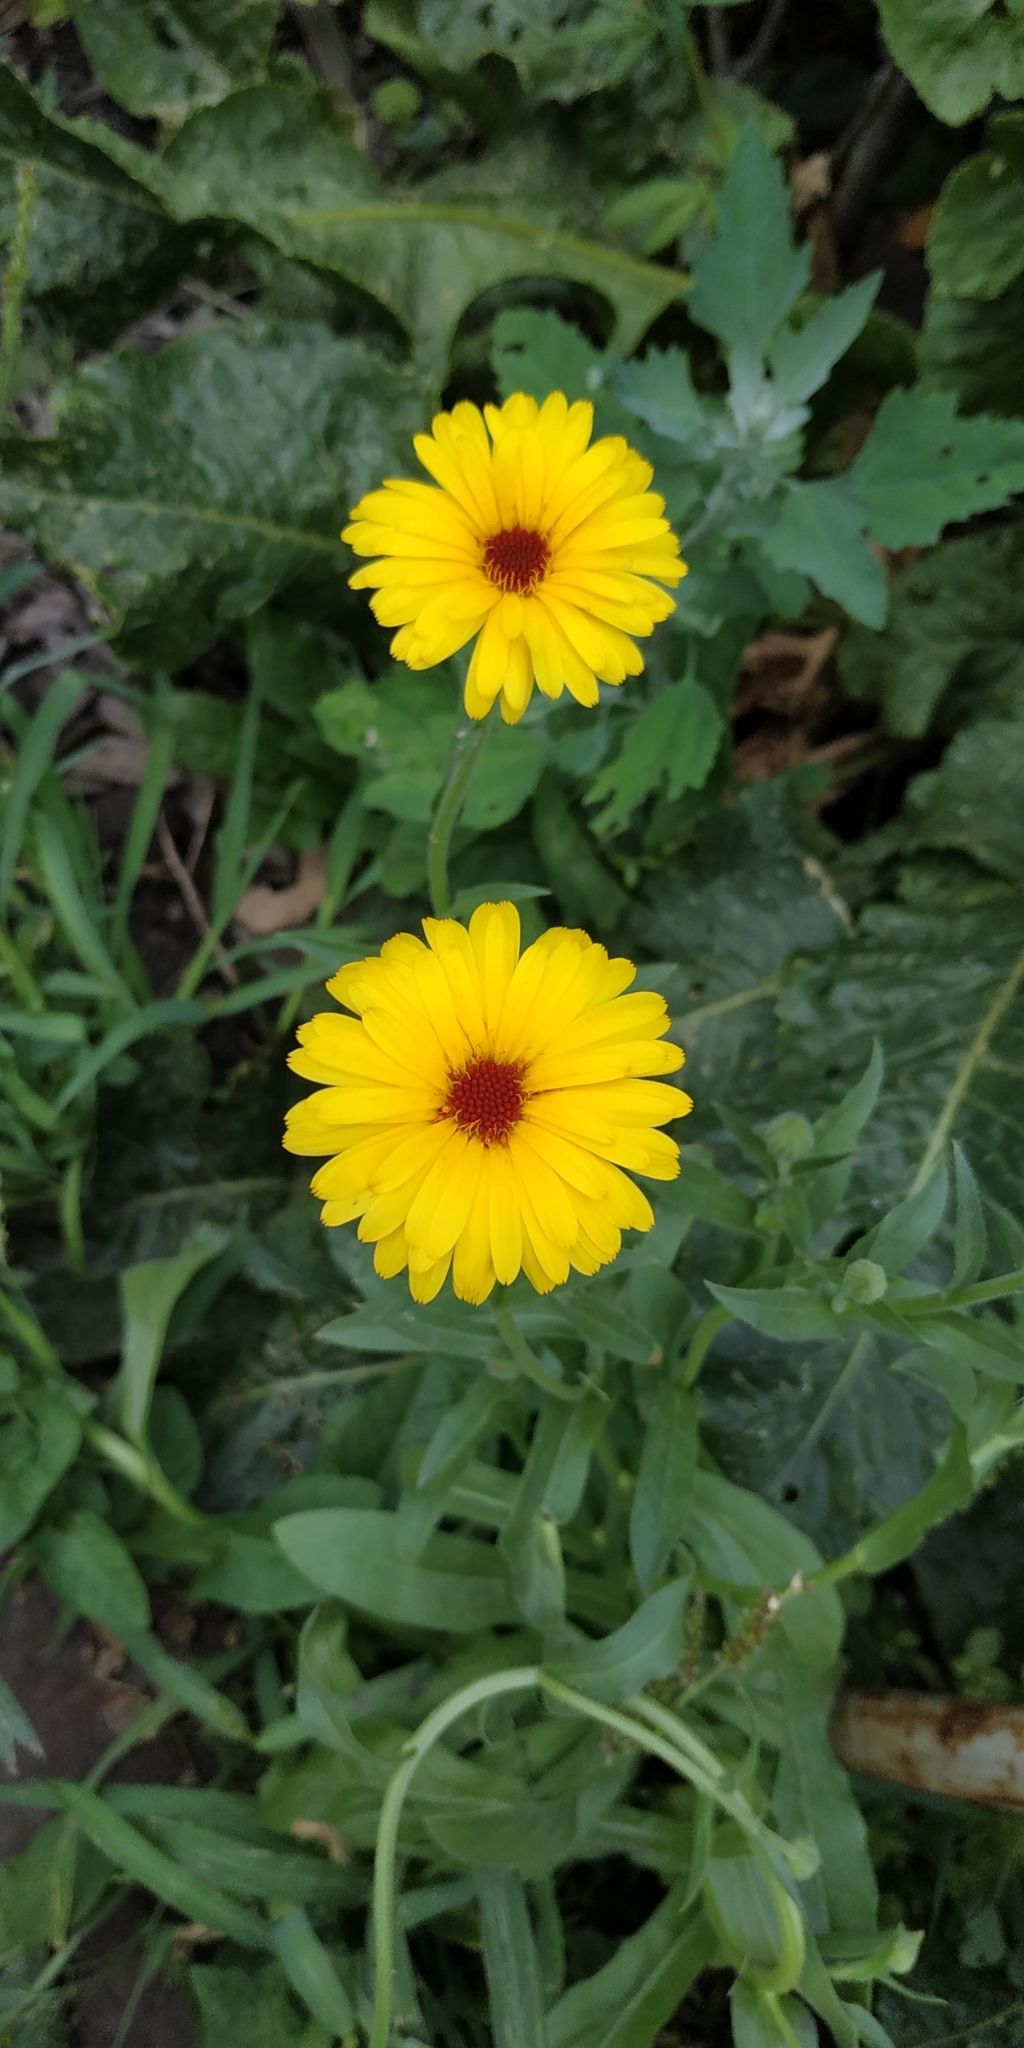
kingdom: Plantae
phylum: Tracheophyta
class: Magnoliopsida
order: Asterales
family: Asteraceae
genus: Calendula
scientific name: Calendula officinalis
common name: Pot marigold
